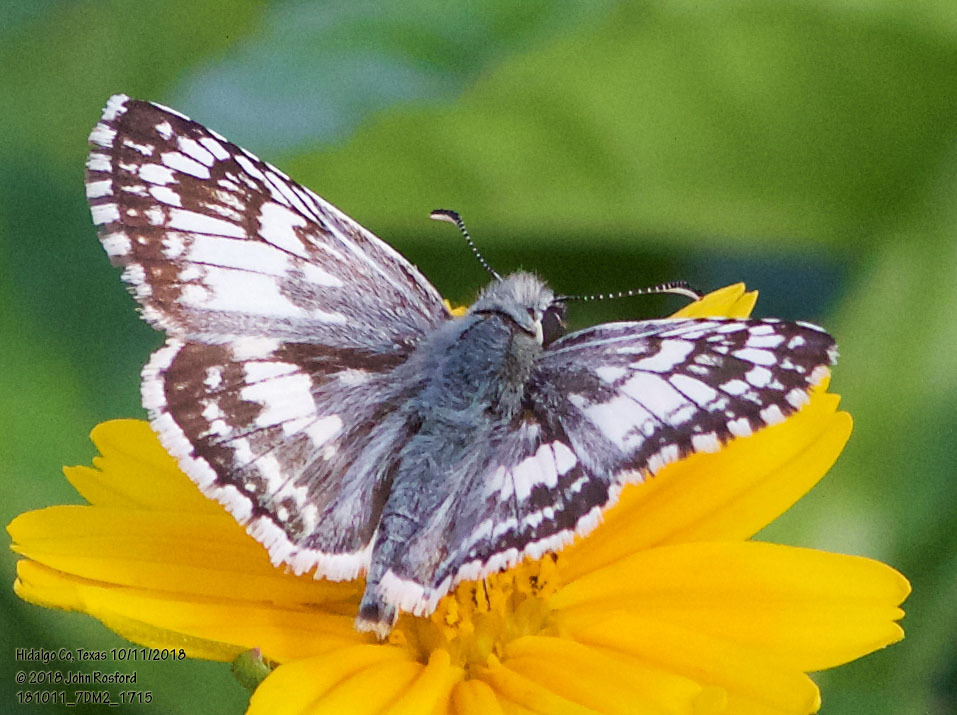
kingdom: Animalia
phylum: Arthropoda
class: Insecta
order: Lepidoptera
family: Hesperiidae
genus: Burnsius
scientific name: Burnsius albezens
